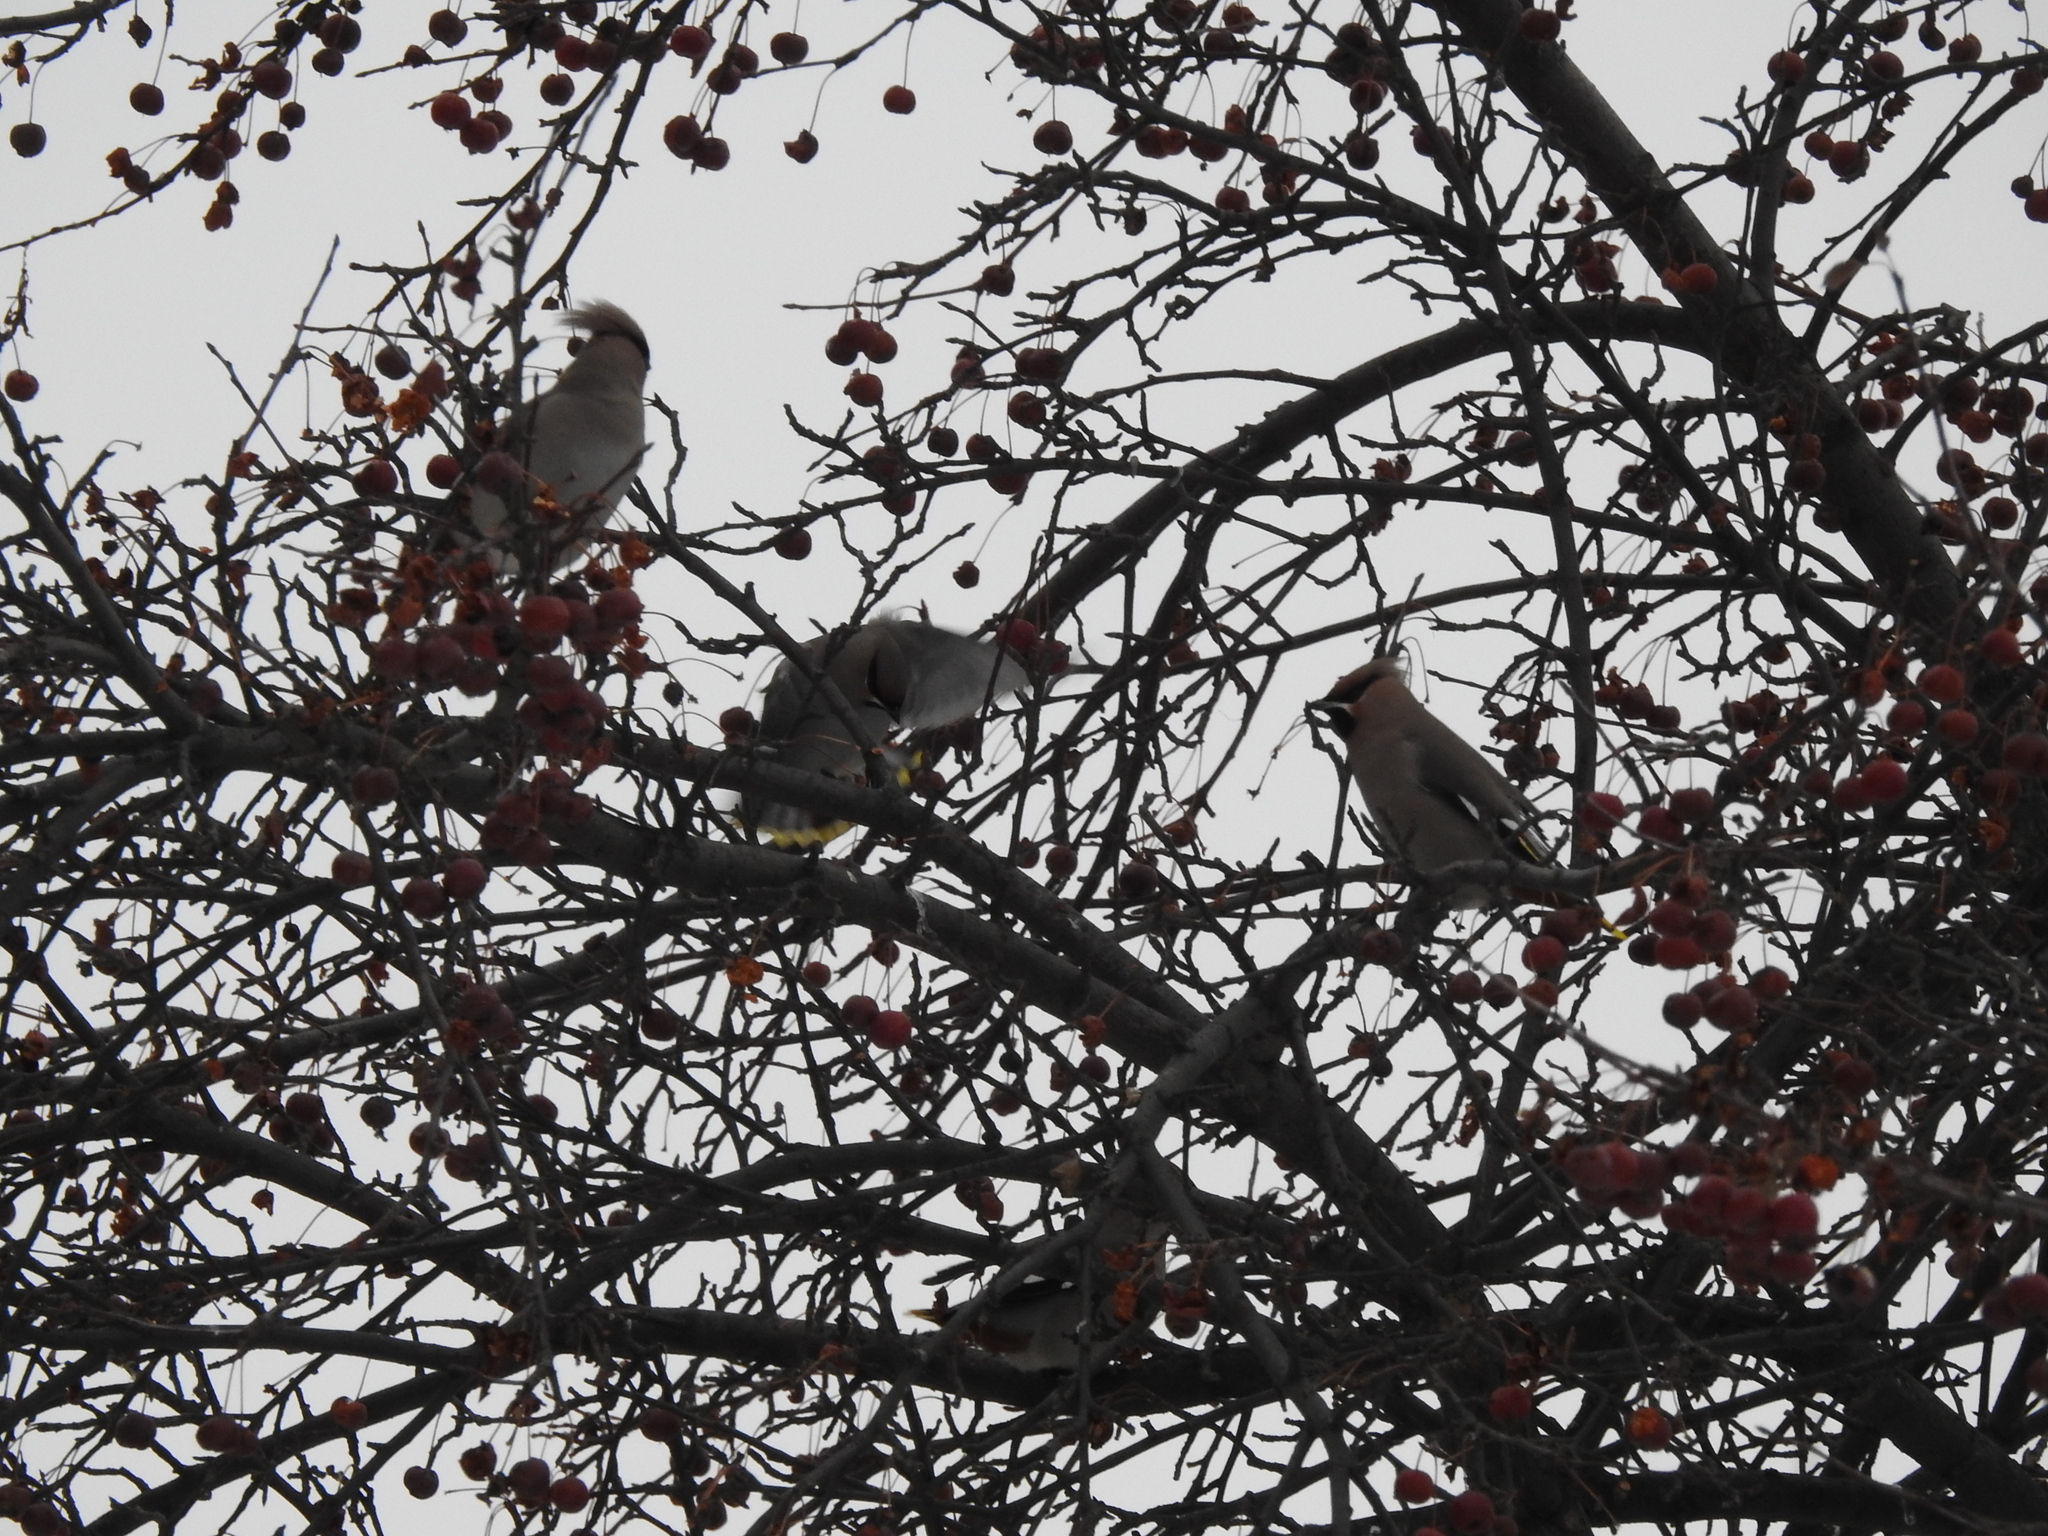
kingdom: Animalia
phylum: Chordata
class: Aves
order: Passeriformes
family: Bombycillidae
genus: Bombycilla
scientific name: Bombycilla garrulus
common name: Bohemian waxwing
